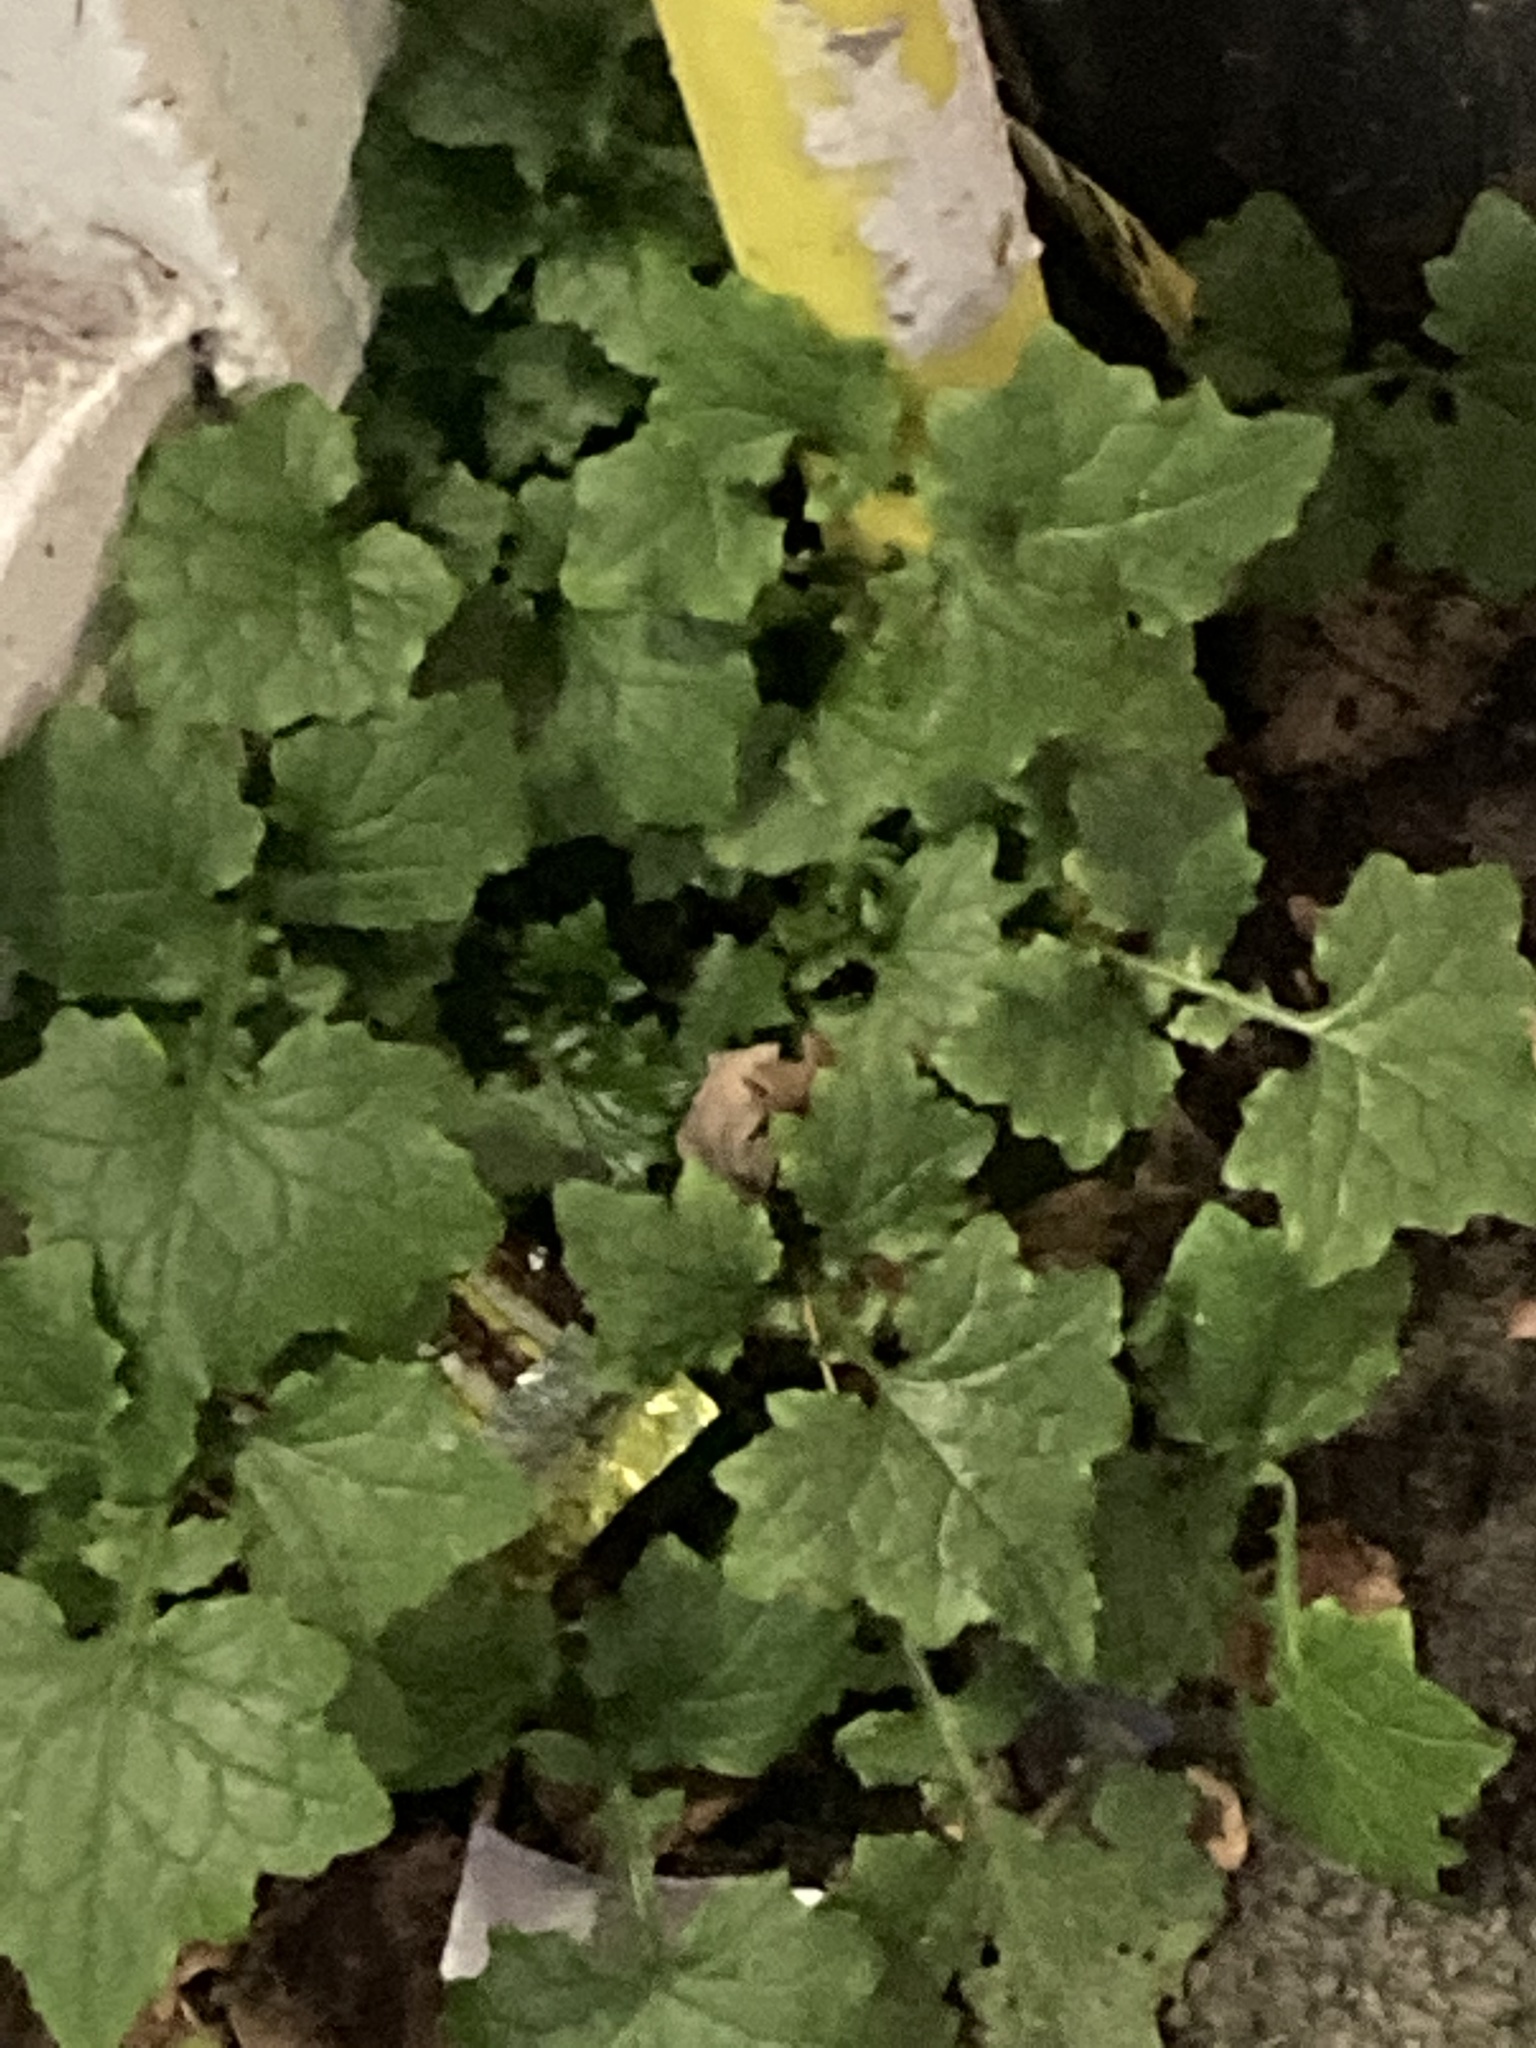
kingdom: Plantae
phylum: Tracheophyta
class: Magnoliopsida
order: Asterales
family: Asteraceae
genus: Mycelis
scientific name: Mycelis muralis
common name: Wall lettuce
